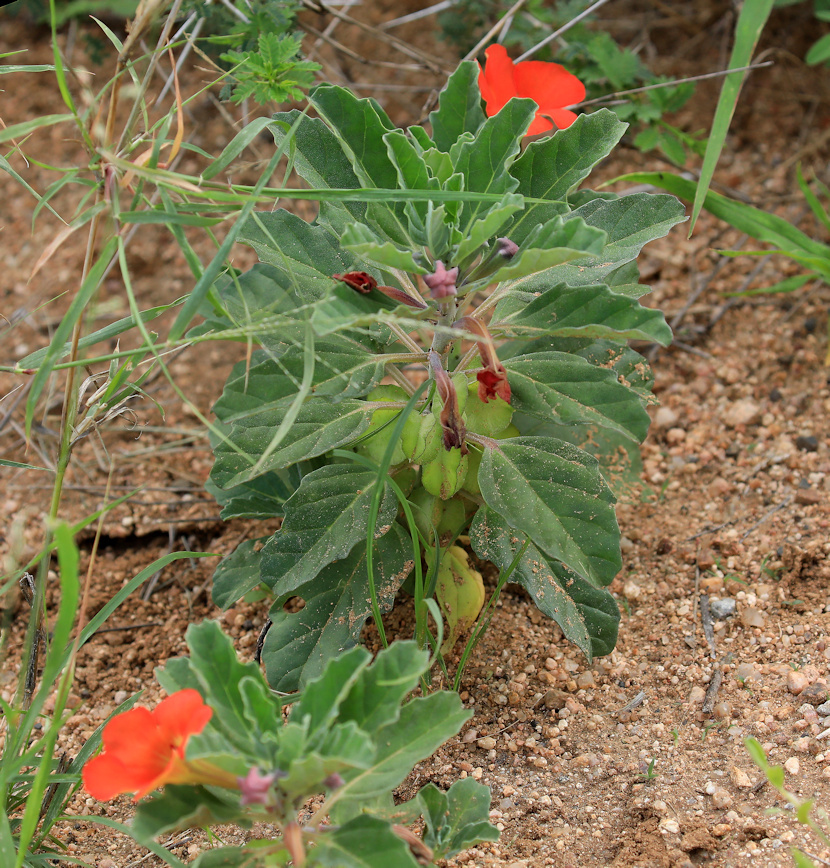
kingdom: Plantae
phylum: Tracheophyta
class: Magnoliopsida
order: Lamiales
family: Pedaliaceae
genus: Pterodiscus
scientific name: Pterodiscus cinnabarinus
